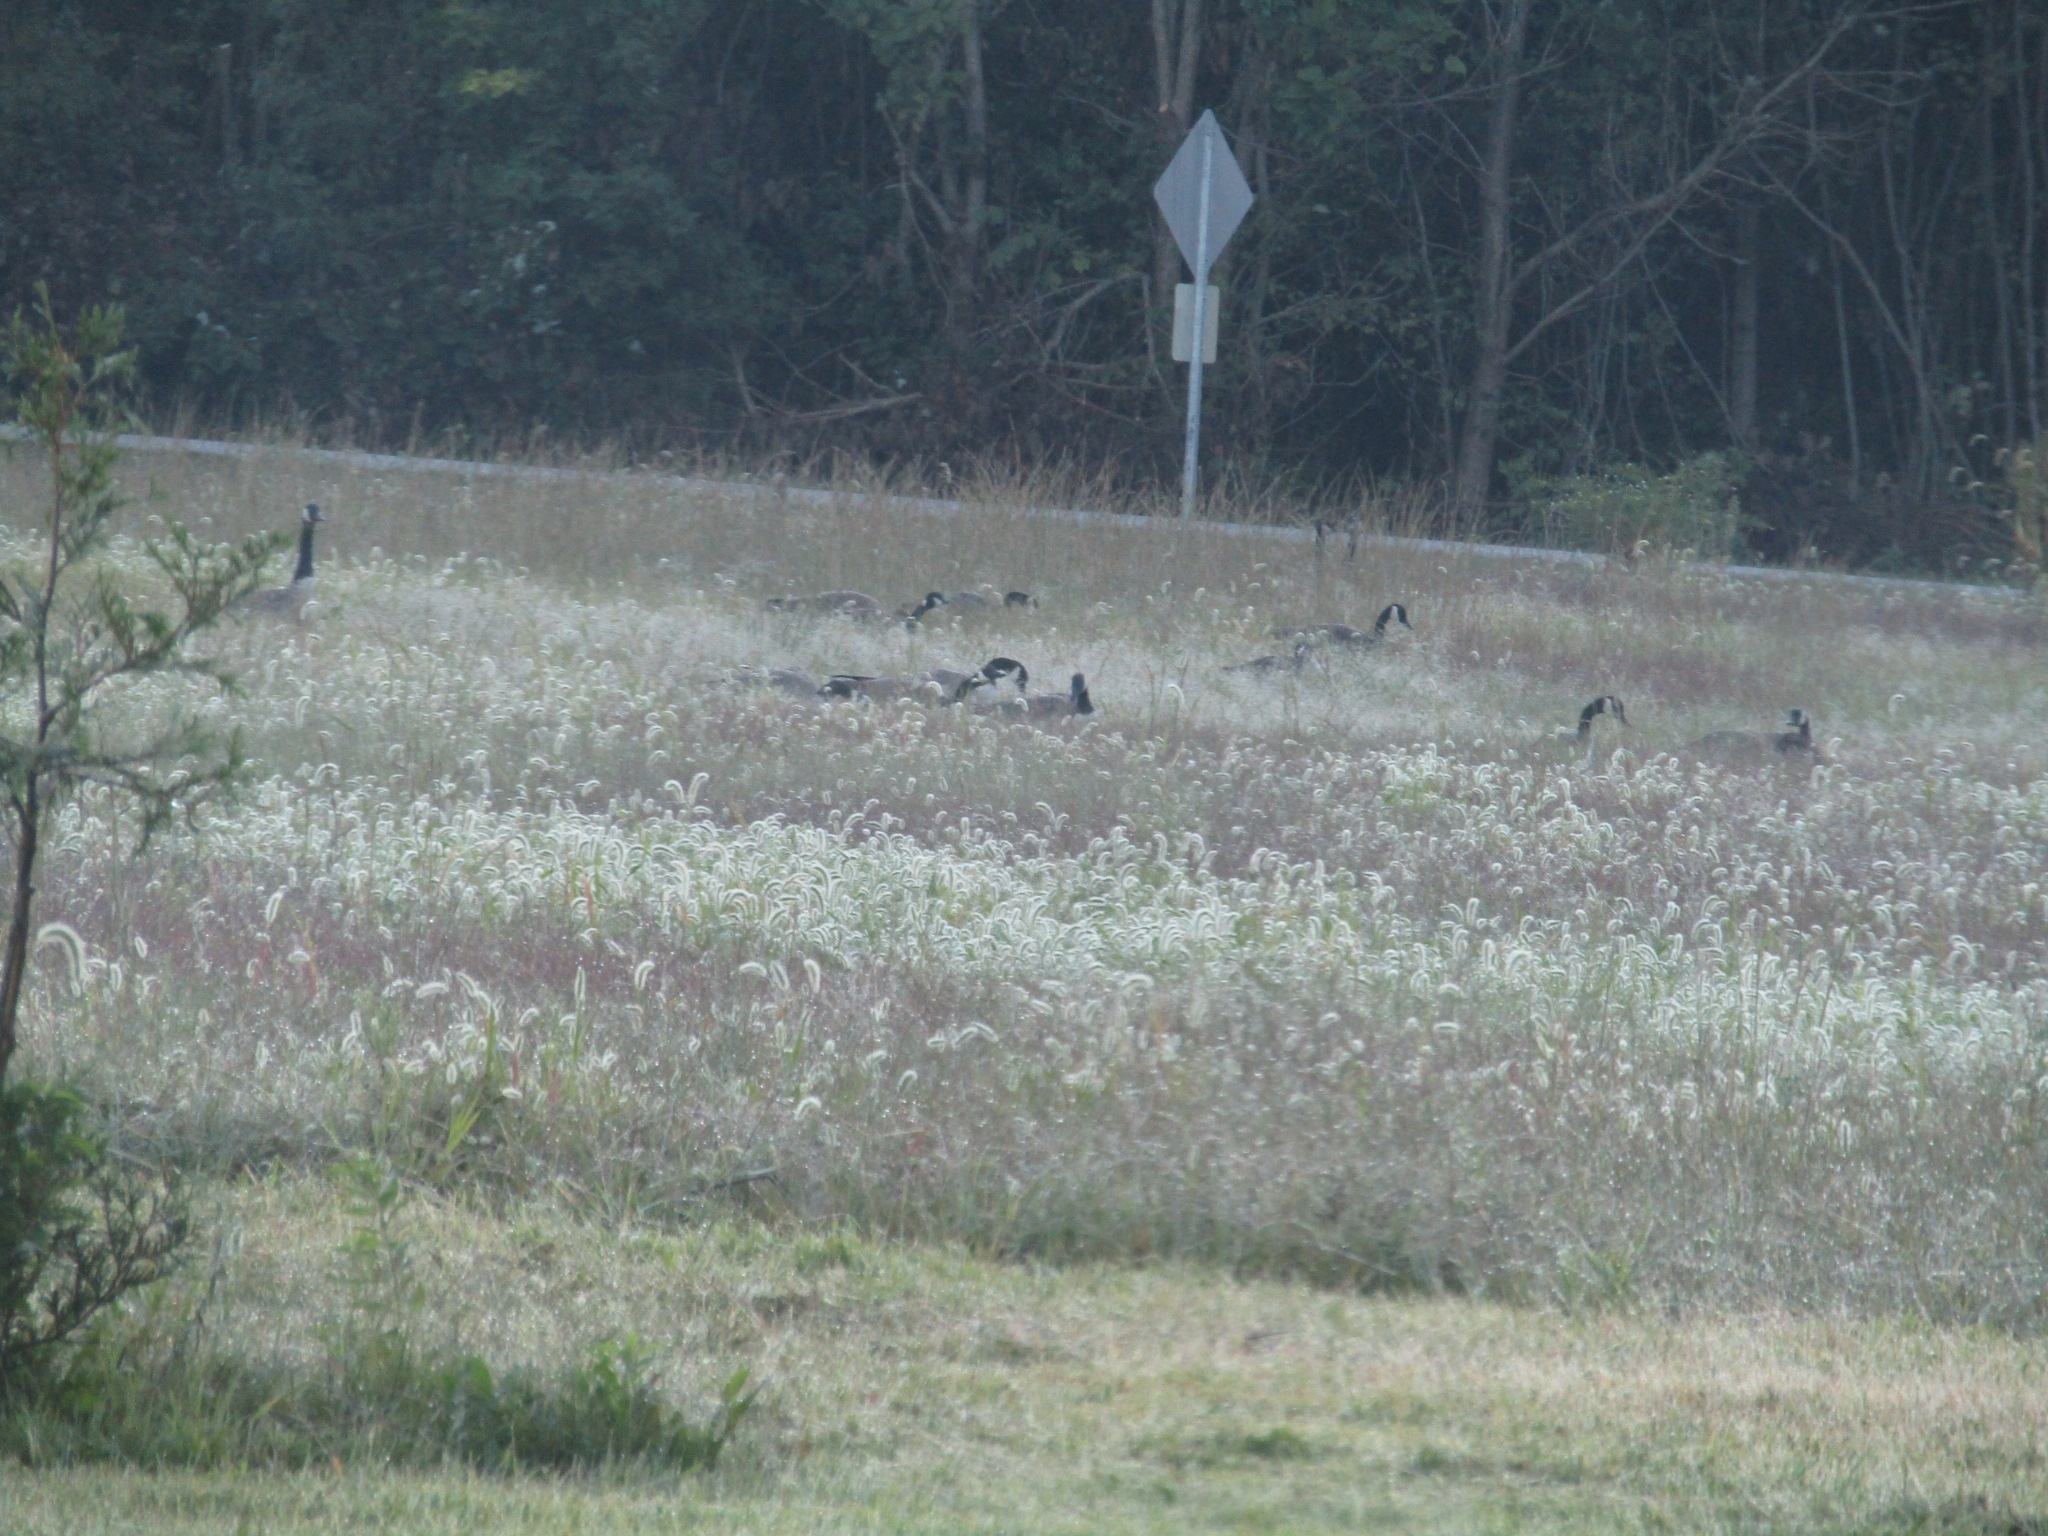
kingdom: Animalia
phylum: Chordata
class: Aves
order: Anseriformes
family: Anatidae
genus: Branta
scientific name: Branta canadensis
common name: Canada goose
